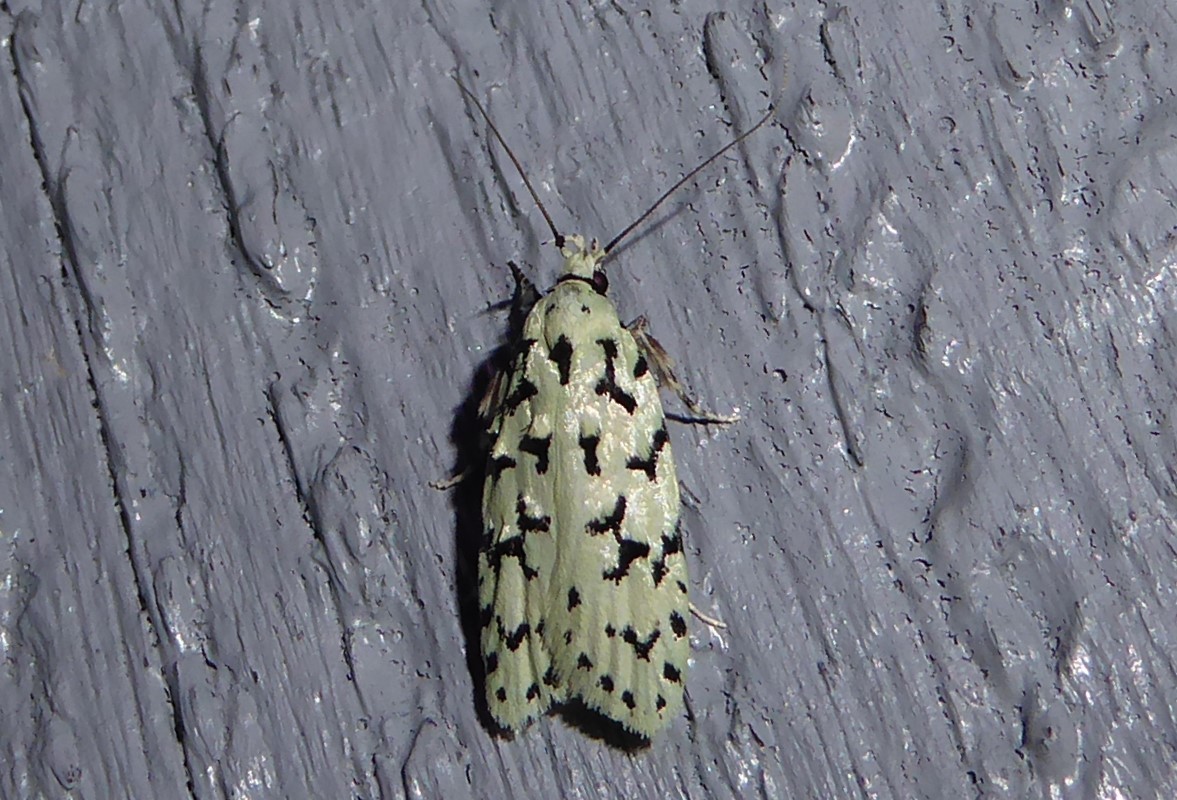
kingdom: Animalia
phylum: Arthropoda
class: Insecta
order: Lepidoptera
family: Oecophoridae
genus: Izatha
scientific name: Izatha huttoni
